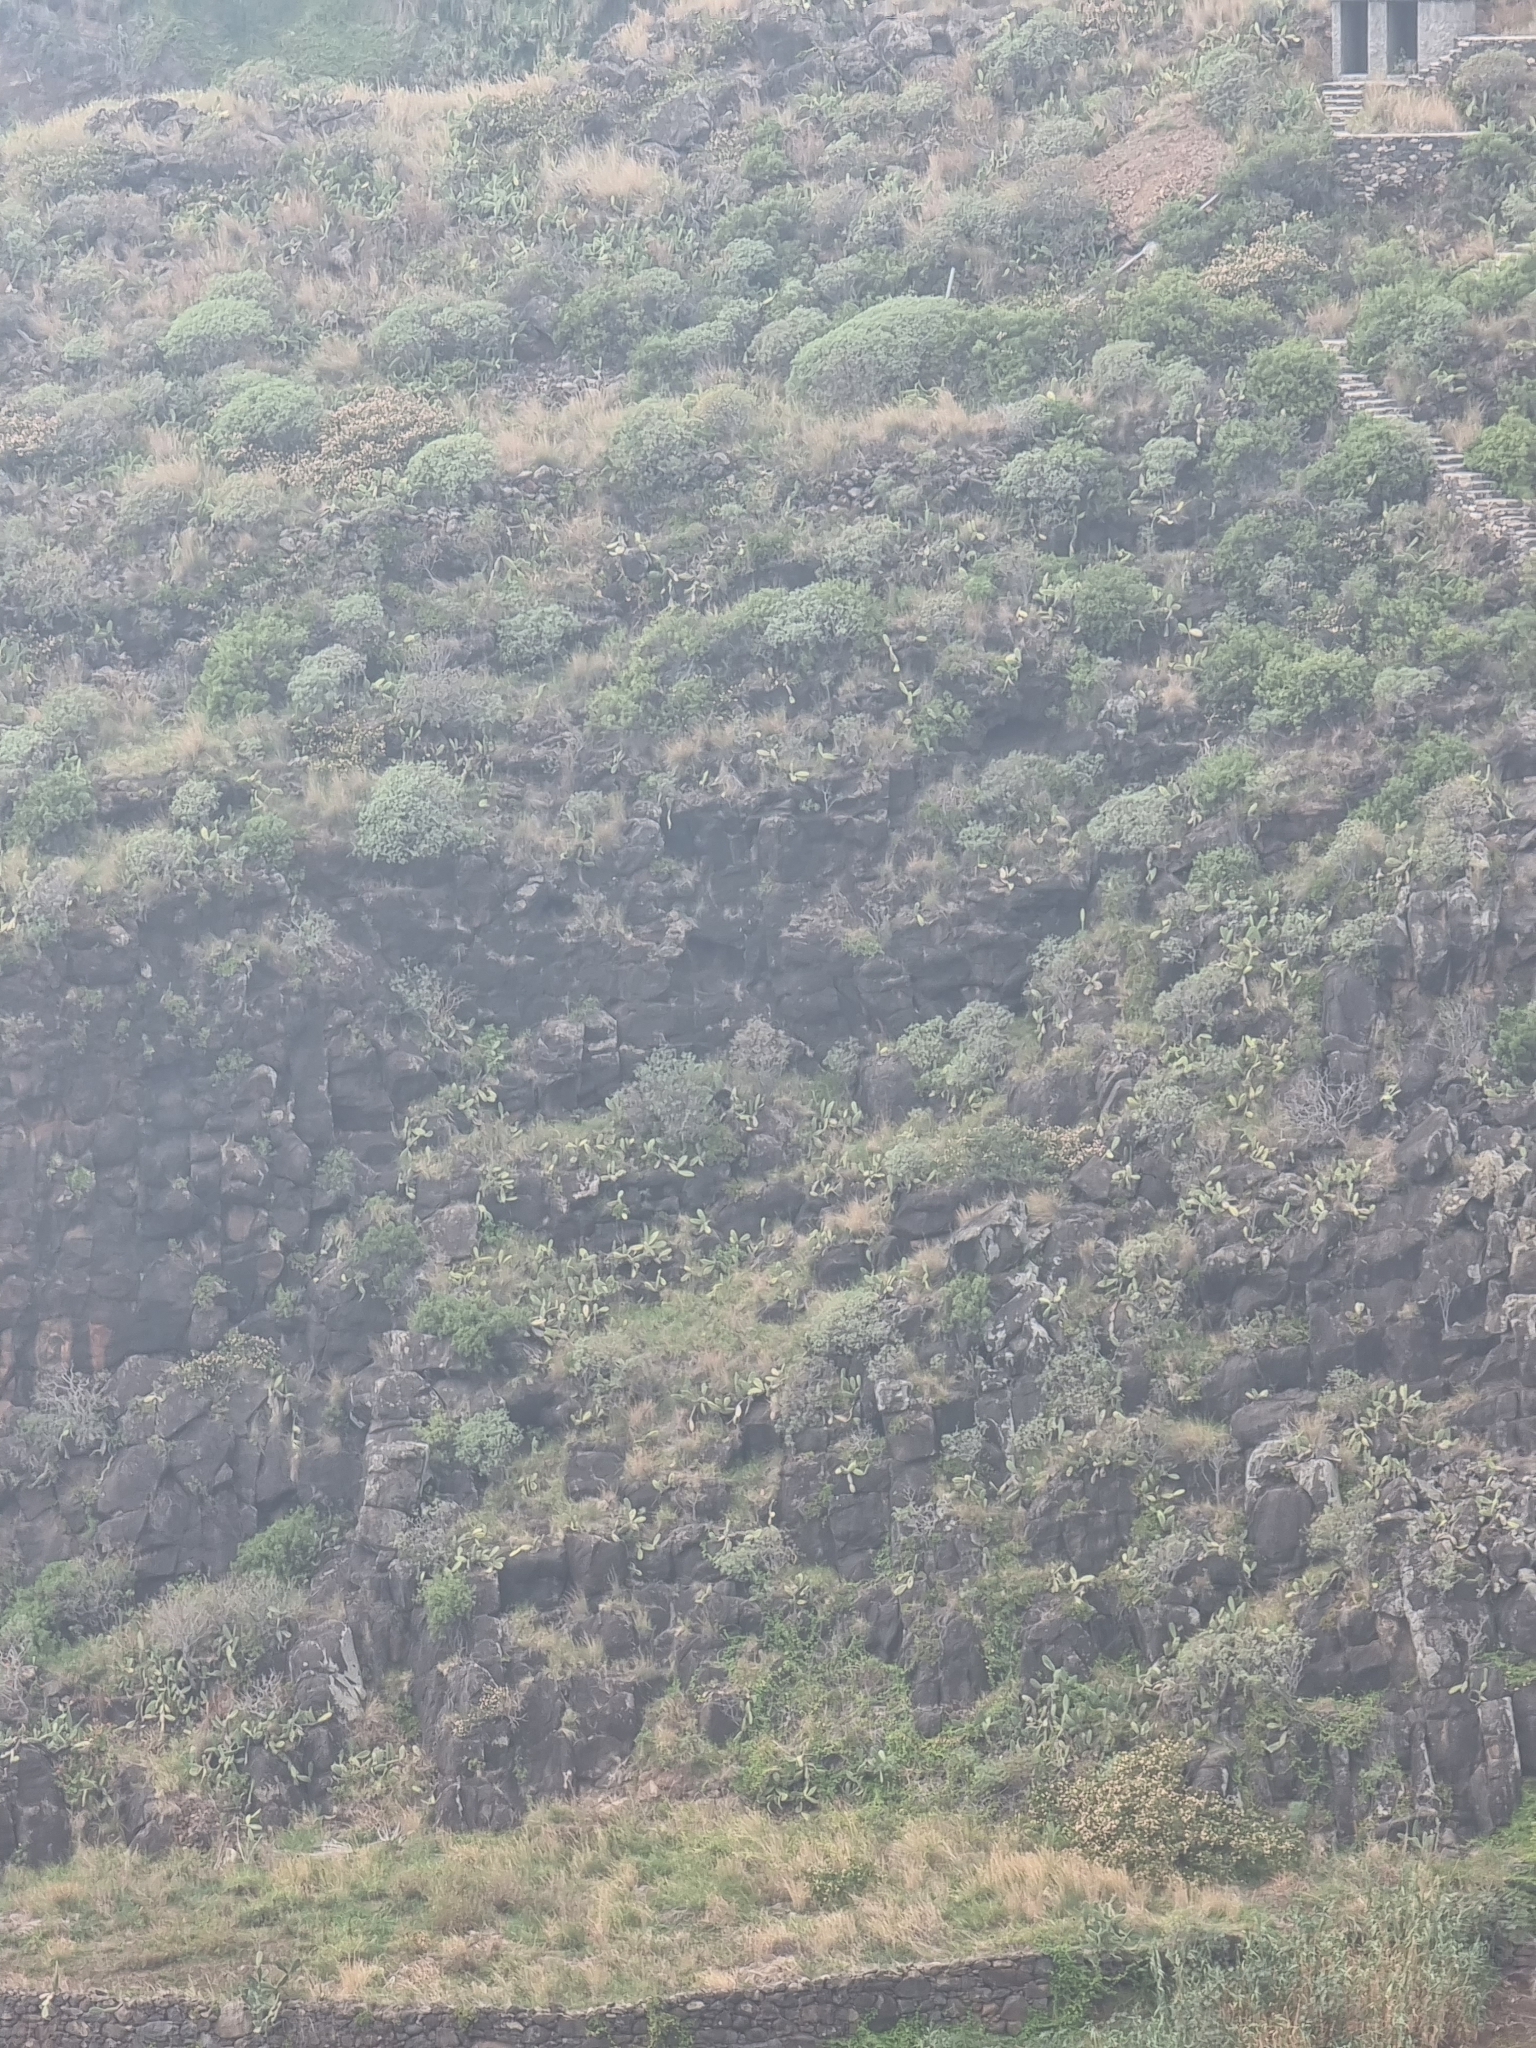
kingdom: Plantae
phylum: Tracheophyta
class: Magnoliopsida
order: Malpighiales
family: Euphorbiaceae
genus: Euphorbia
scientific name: Euphorbia piscatoria
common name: Fish-stunning spurge
